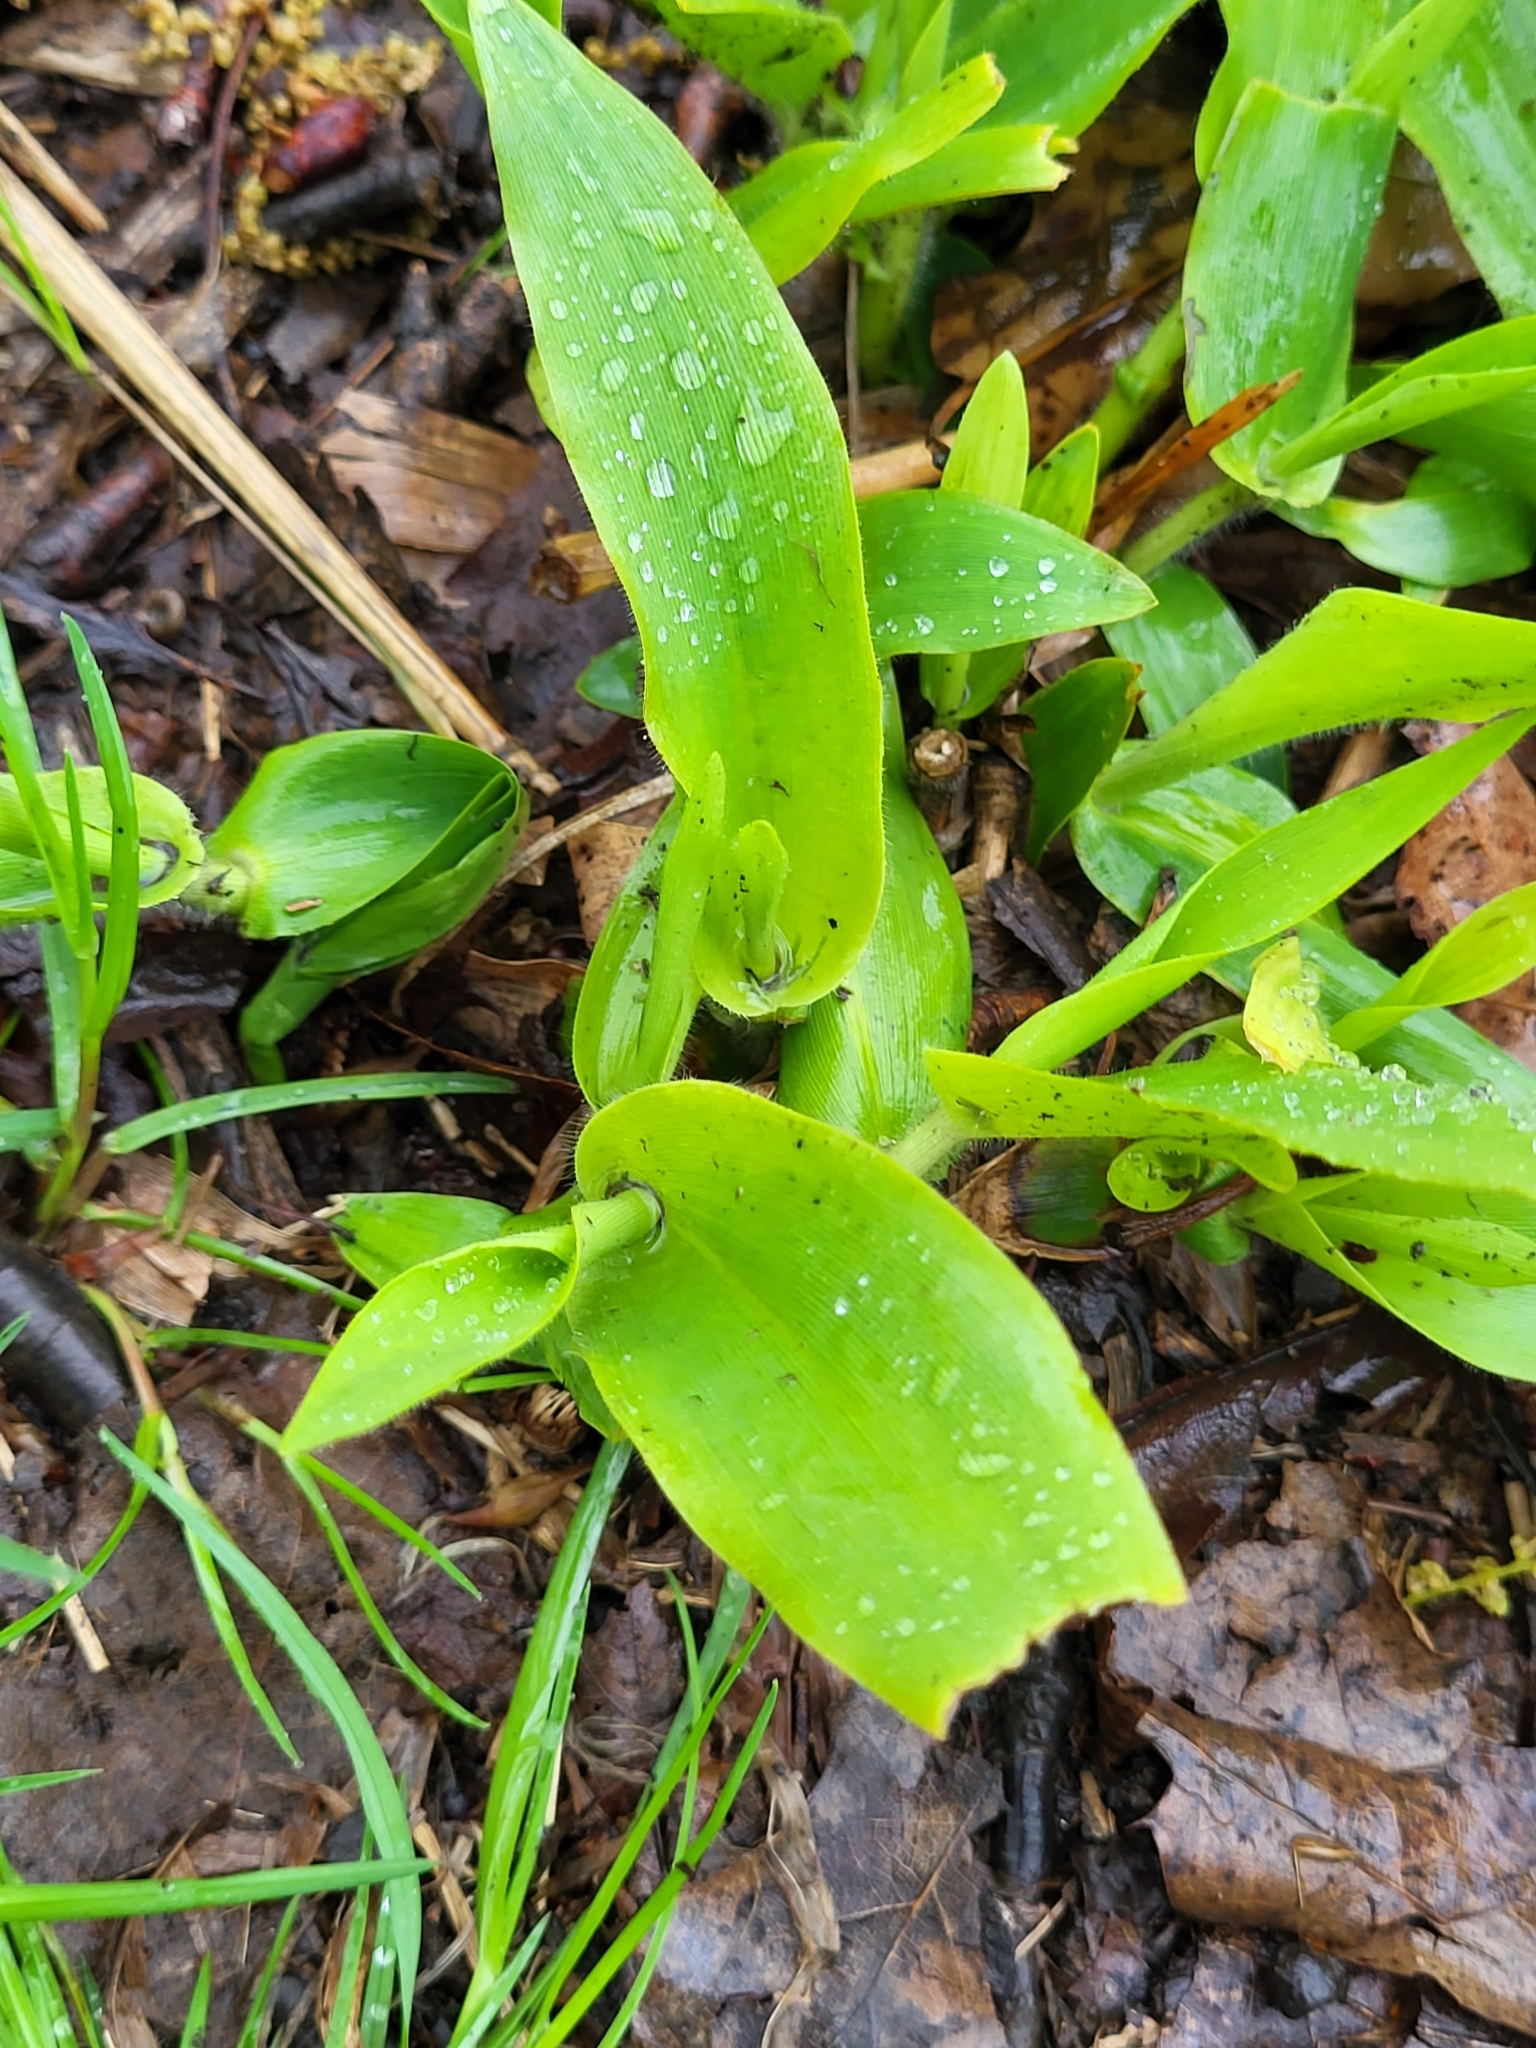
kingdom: Plantae
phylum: Tracheophyta
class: Liliopsida
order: Poales
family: Poaceae
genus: Dichanthelium
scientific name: Dichanthelium clandestinum
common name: Deer-tongue grass
